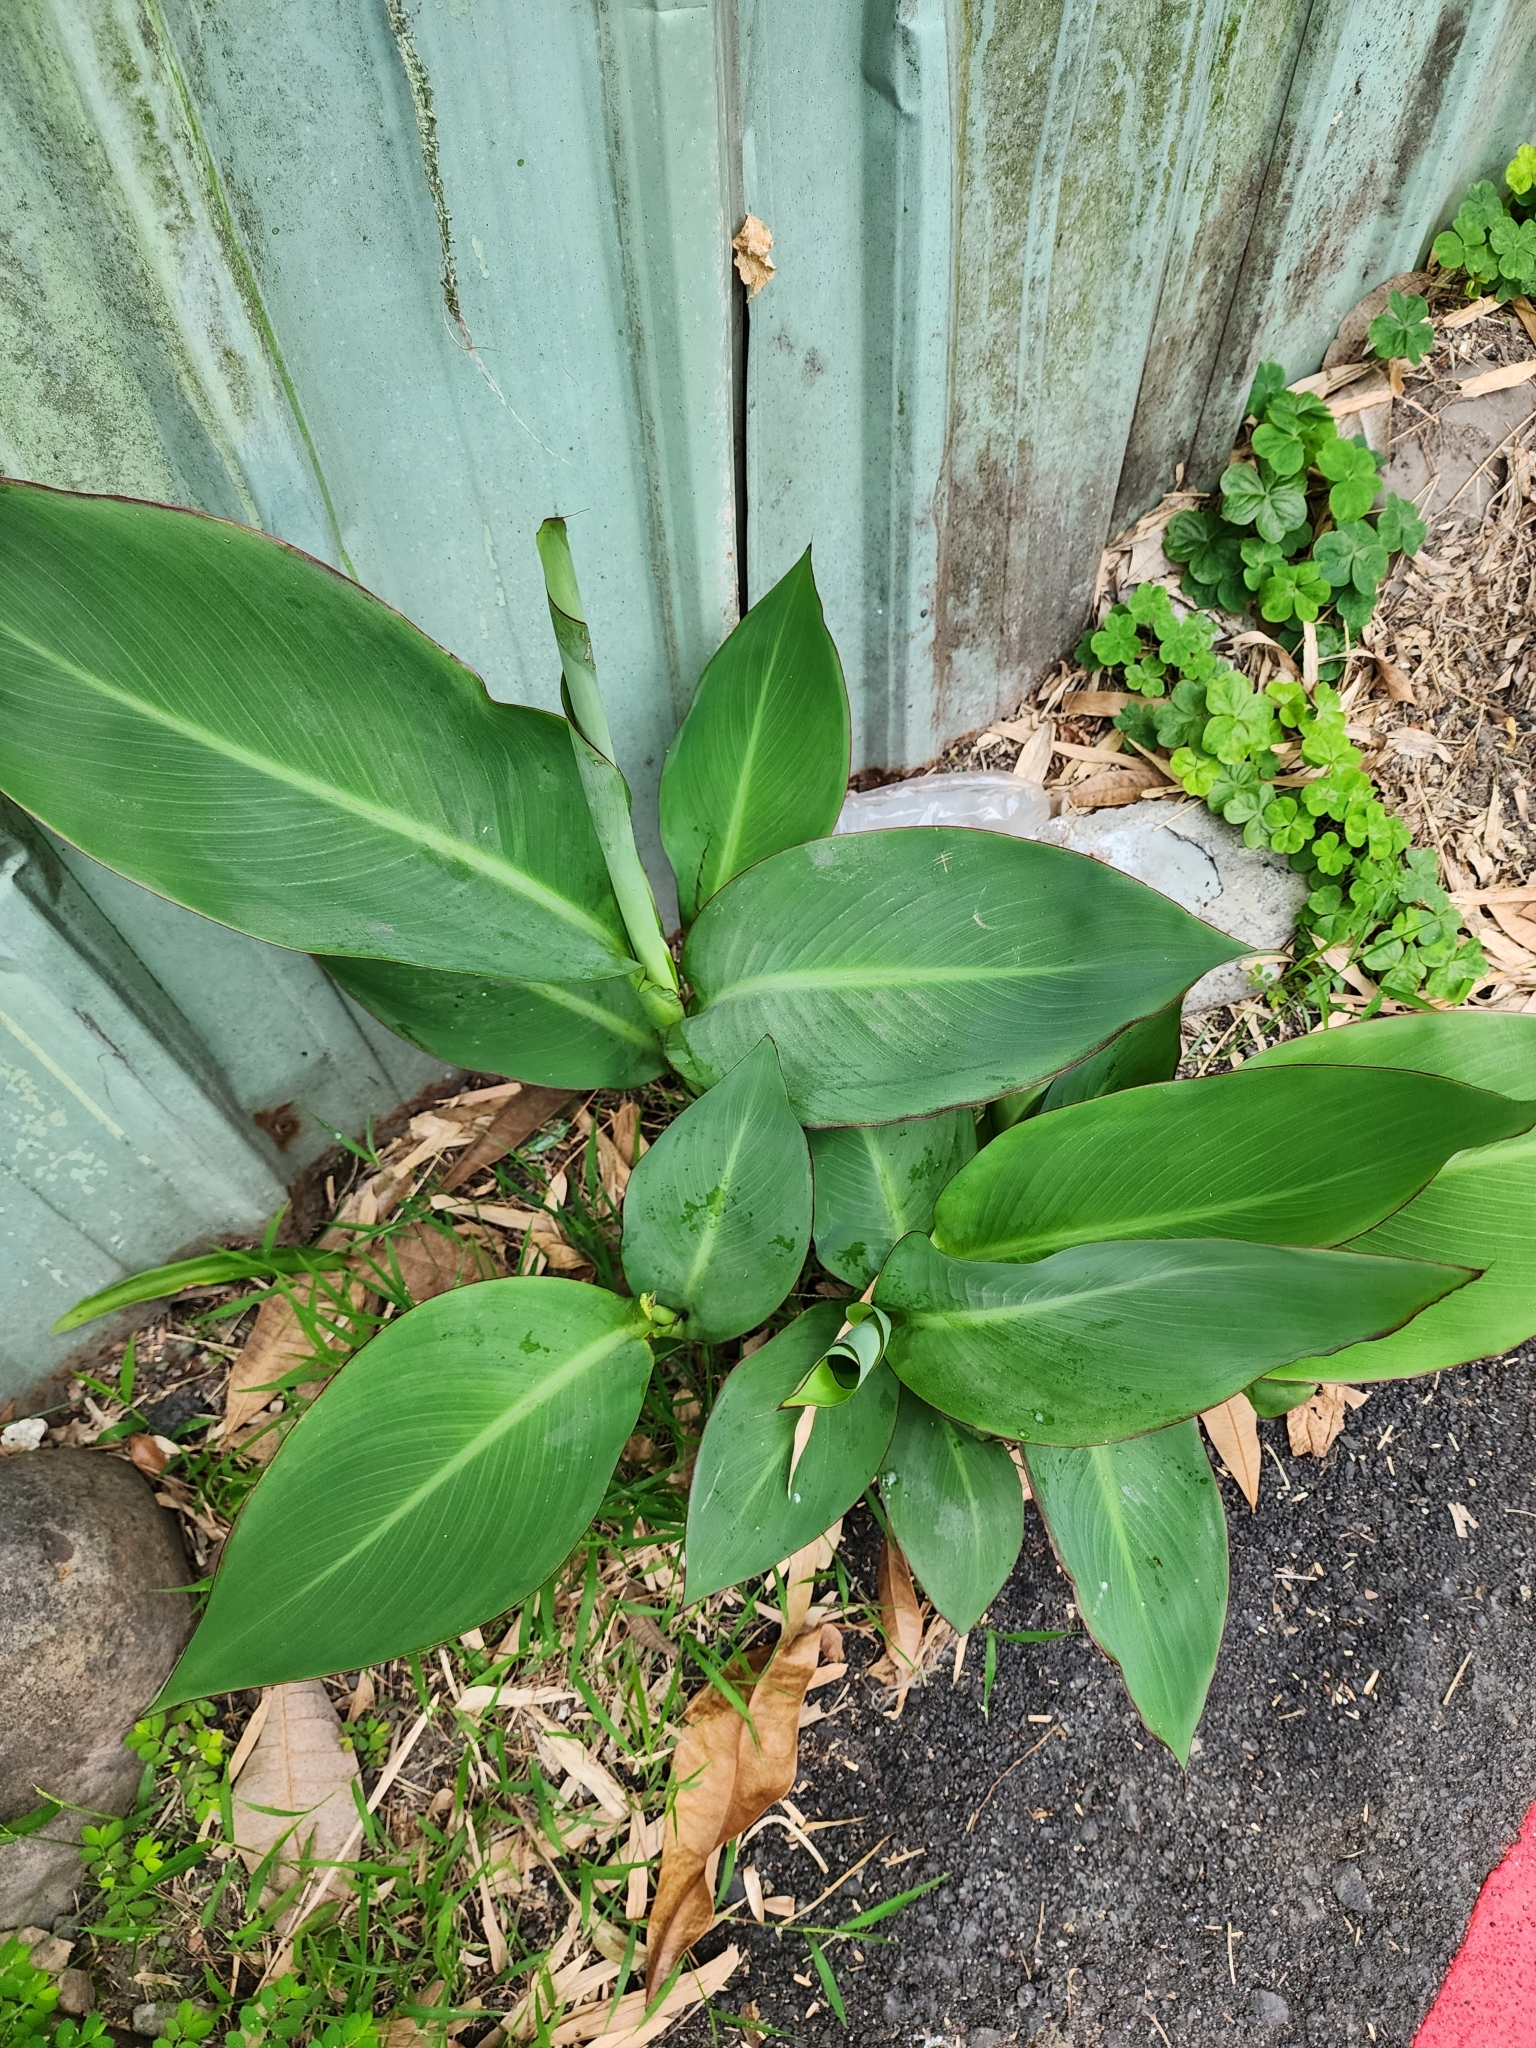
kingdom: Plantae
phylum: Tracheophyta
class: Liliopsida
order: Zingiberales
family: Cannaceae
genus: Canna
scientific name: Canna indica
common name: Indian shot
